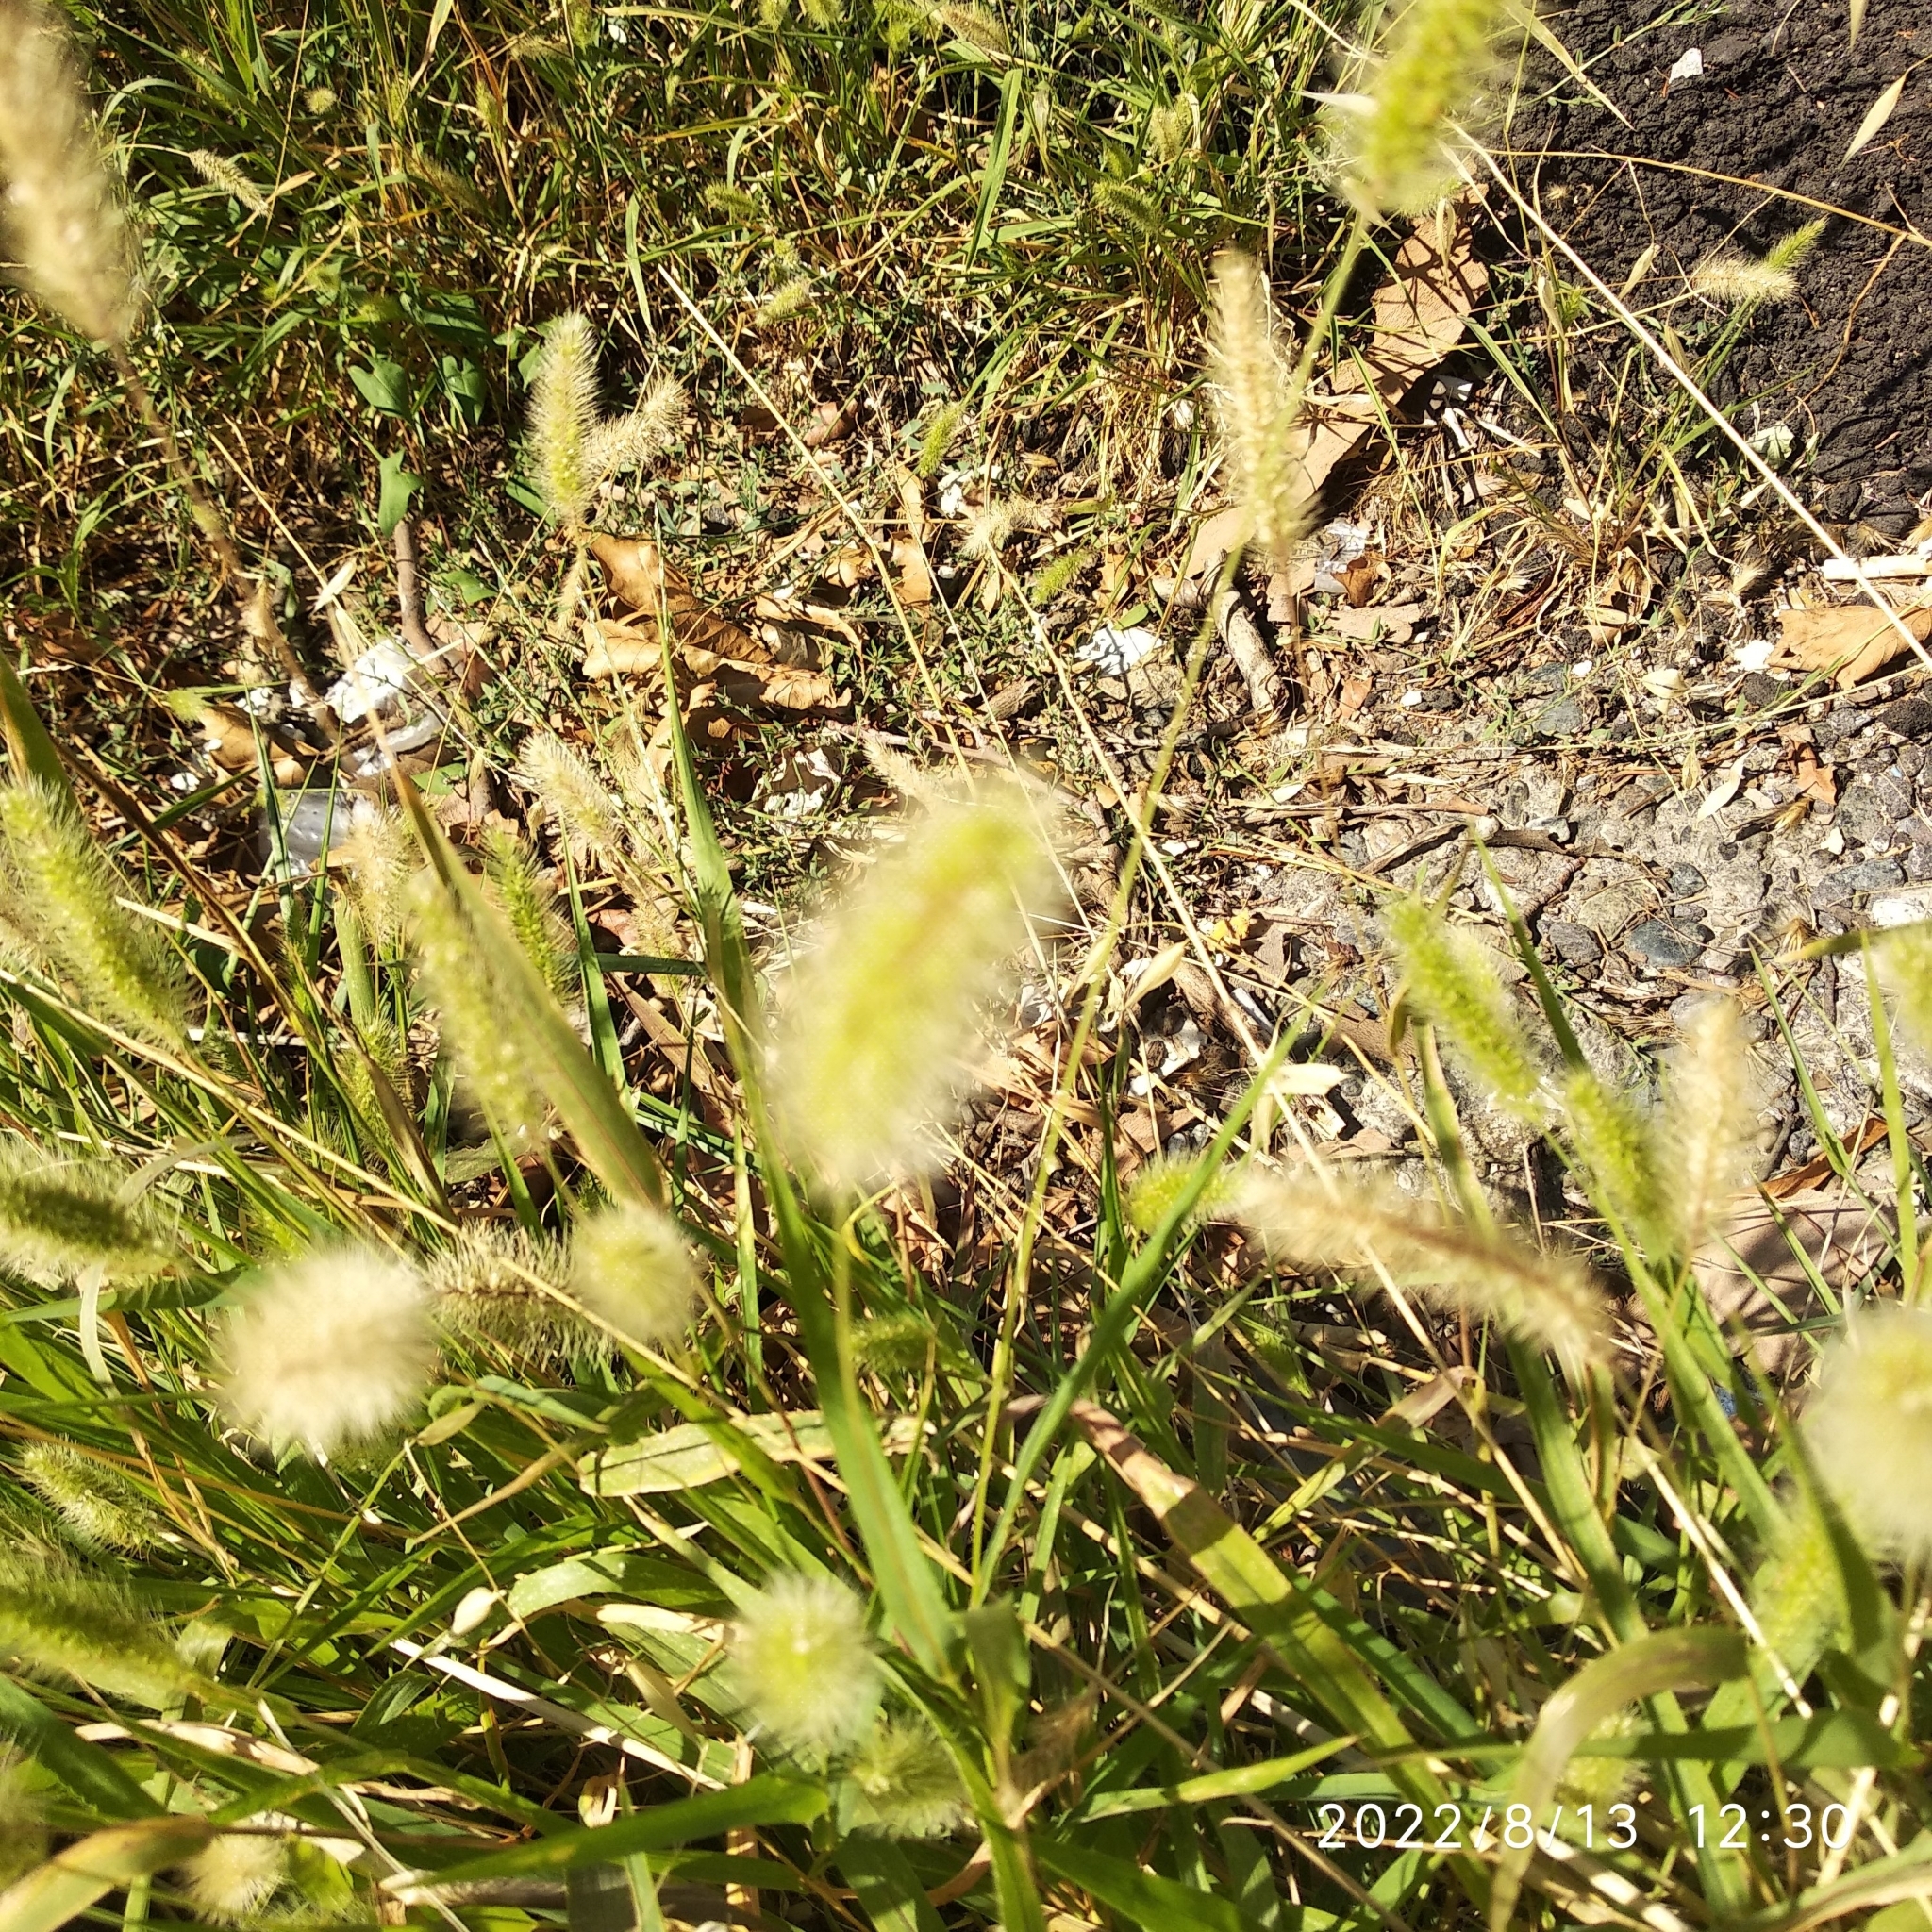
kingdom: Plantae
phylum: Tracheophyta
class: Liliopsida
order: Poales
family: Poaceae
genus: Setaria
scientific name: Setaria viridis
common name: Green bristlegrass
